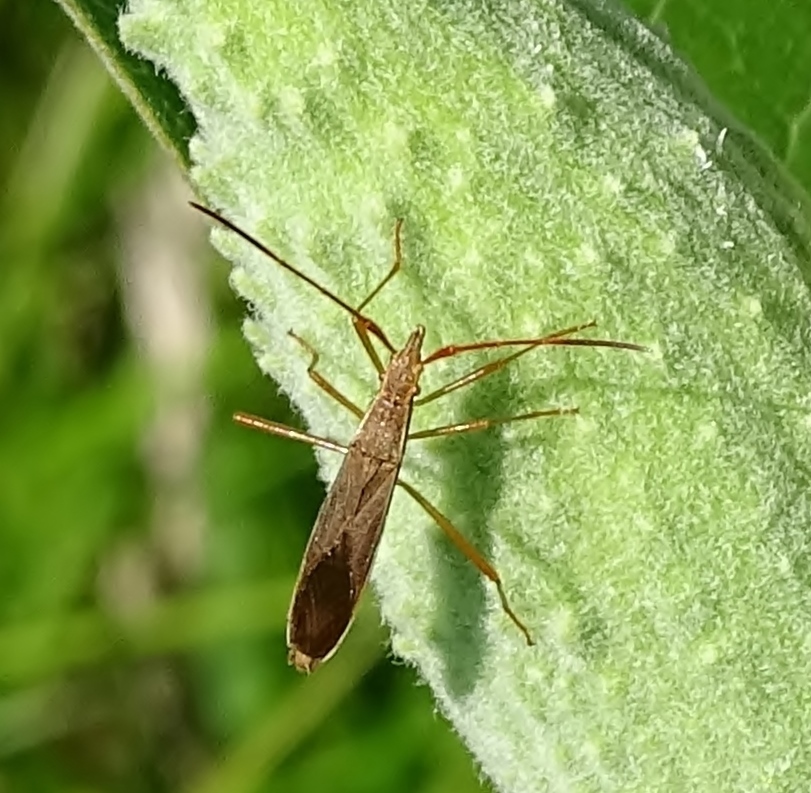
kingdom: Animalia
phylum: Arthropoda
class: Insecta
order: Hemiptera
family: Alydidae
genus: Protenor
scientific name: Protenor belfragei
